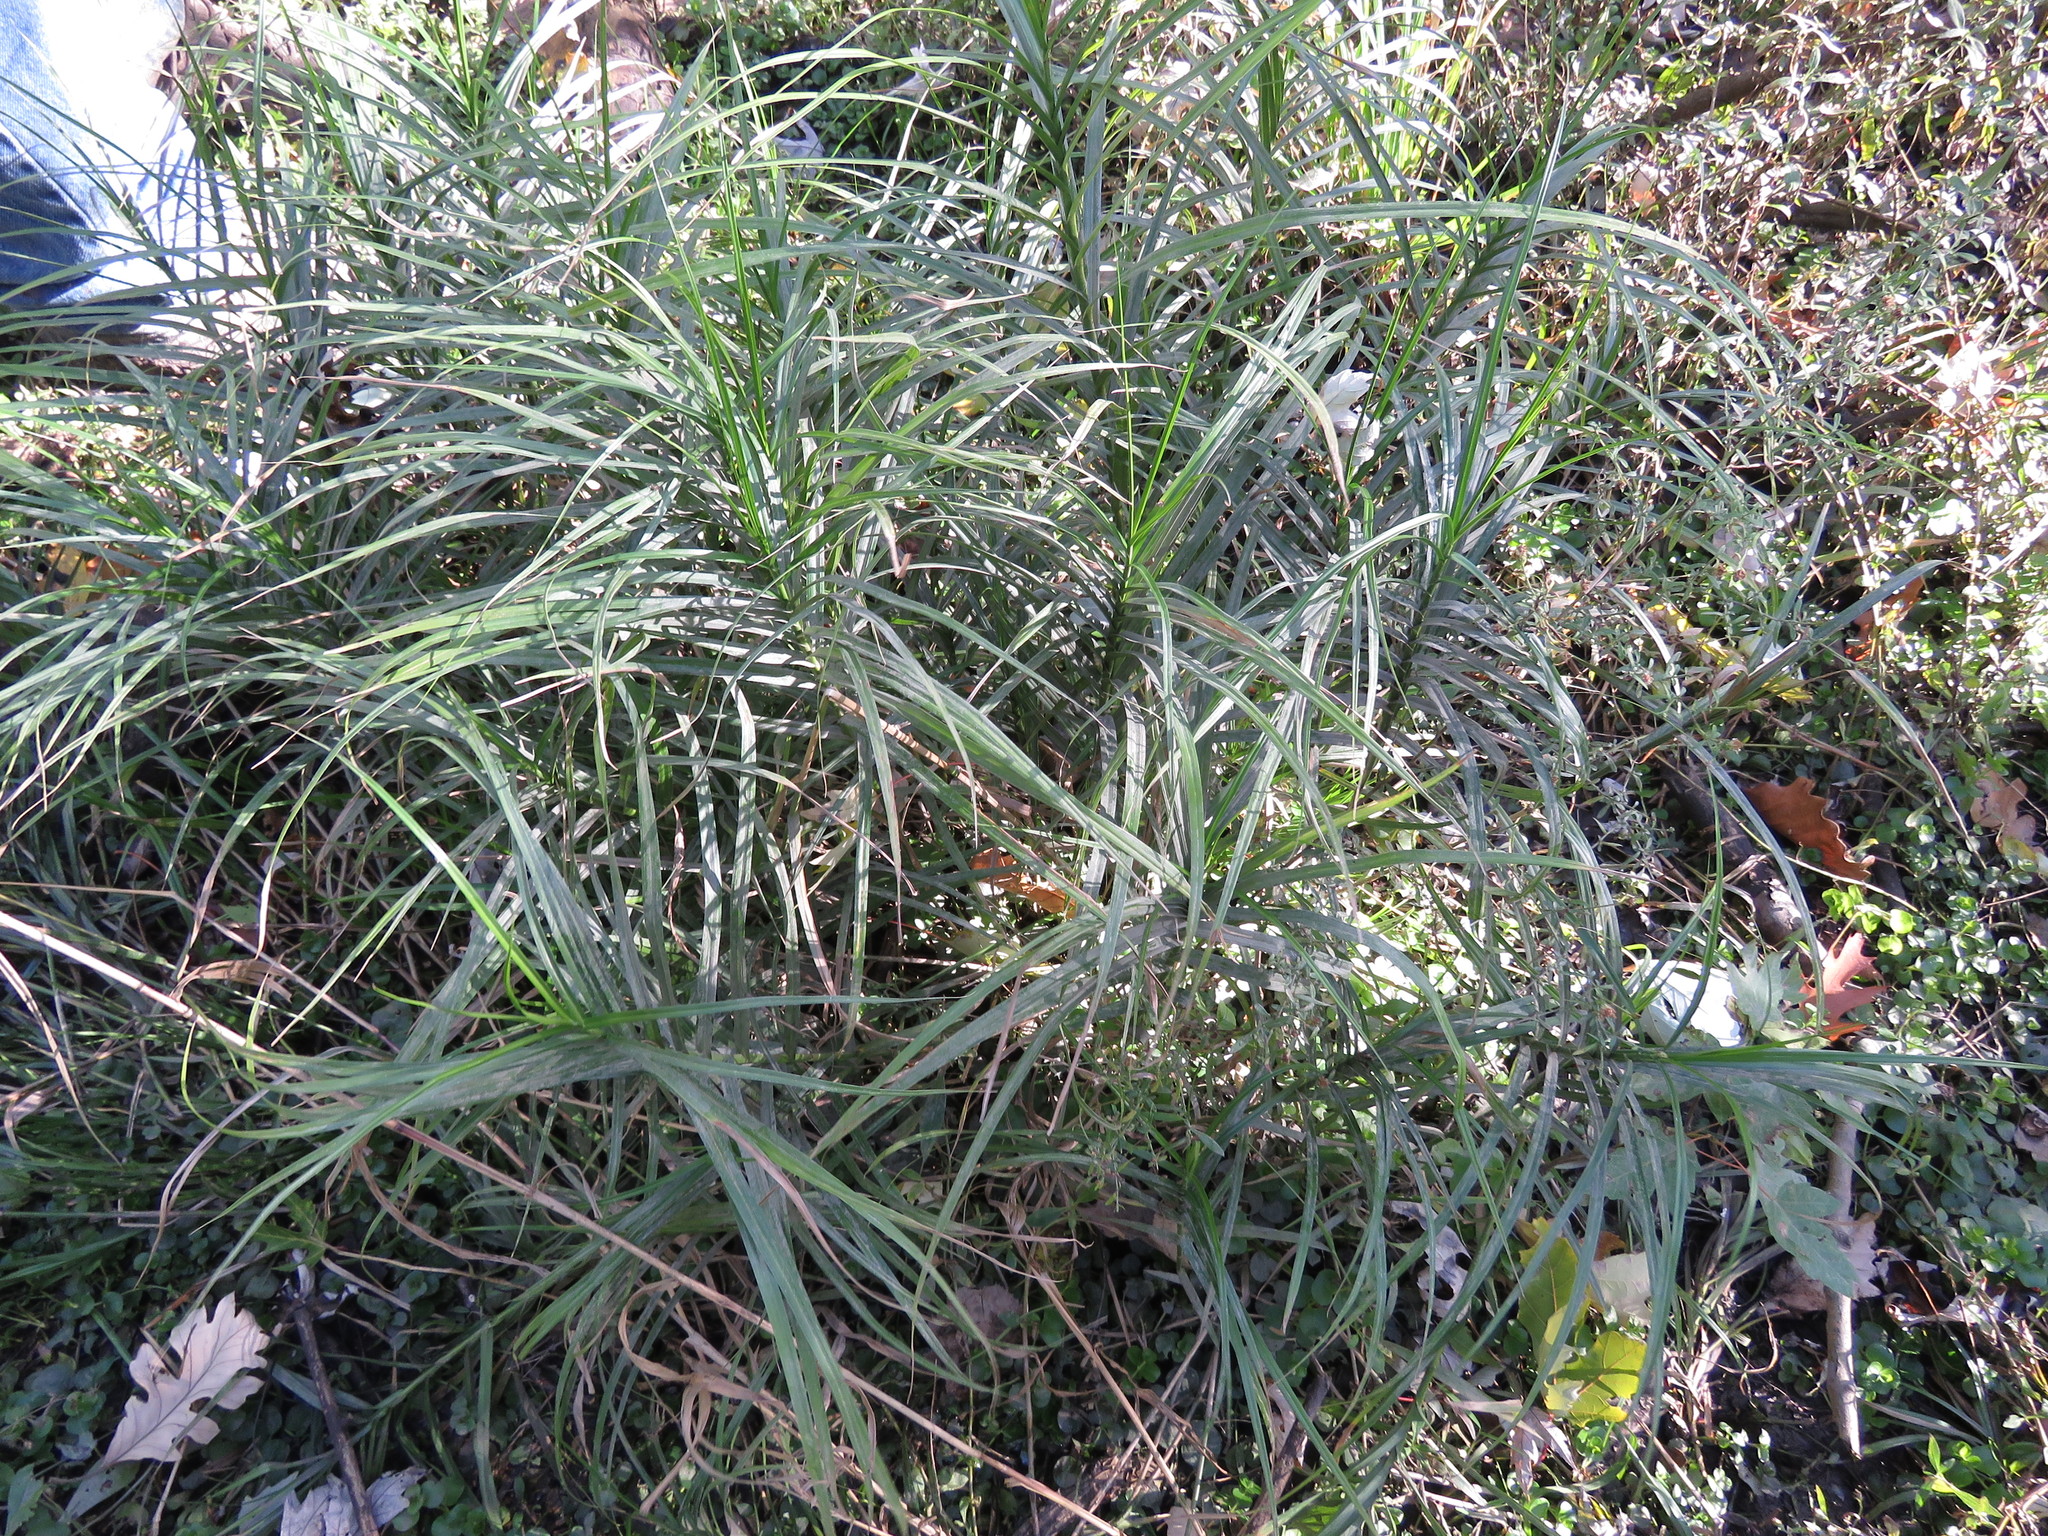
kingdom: Plantae
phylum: Tracheophyta
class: Liliopsida
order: Poales
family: Cyperaceae
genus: Carex
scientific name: Carex muskingumensis
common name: Muskingum sedge
